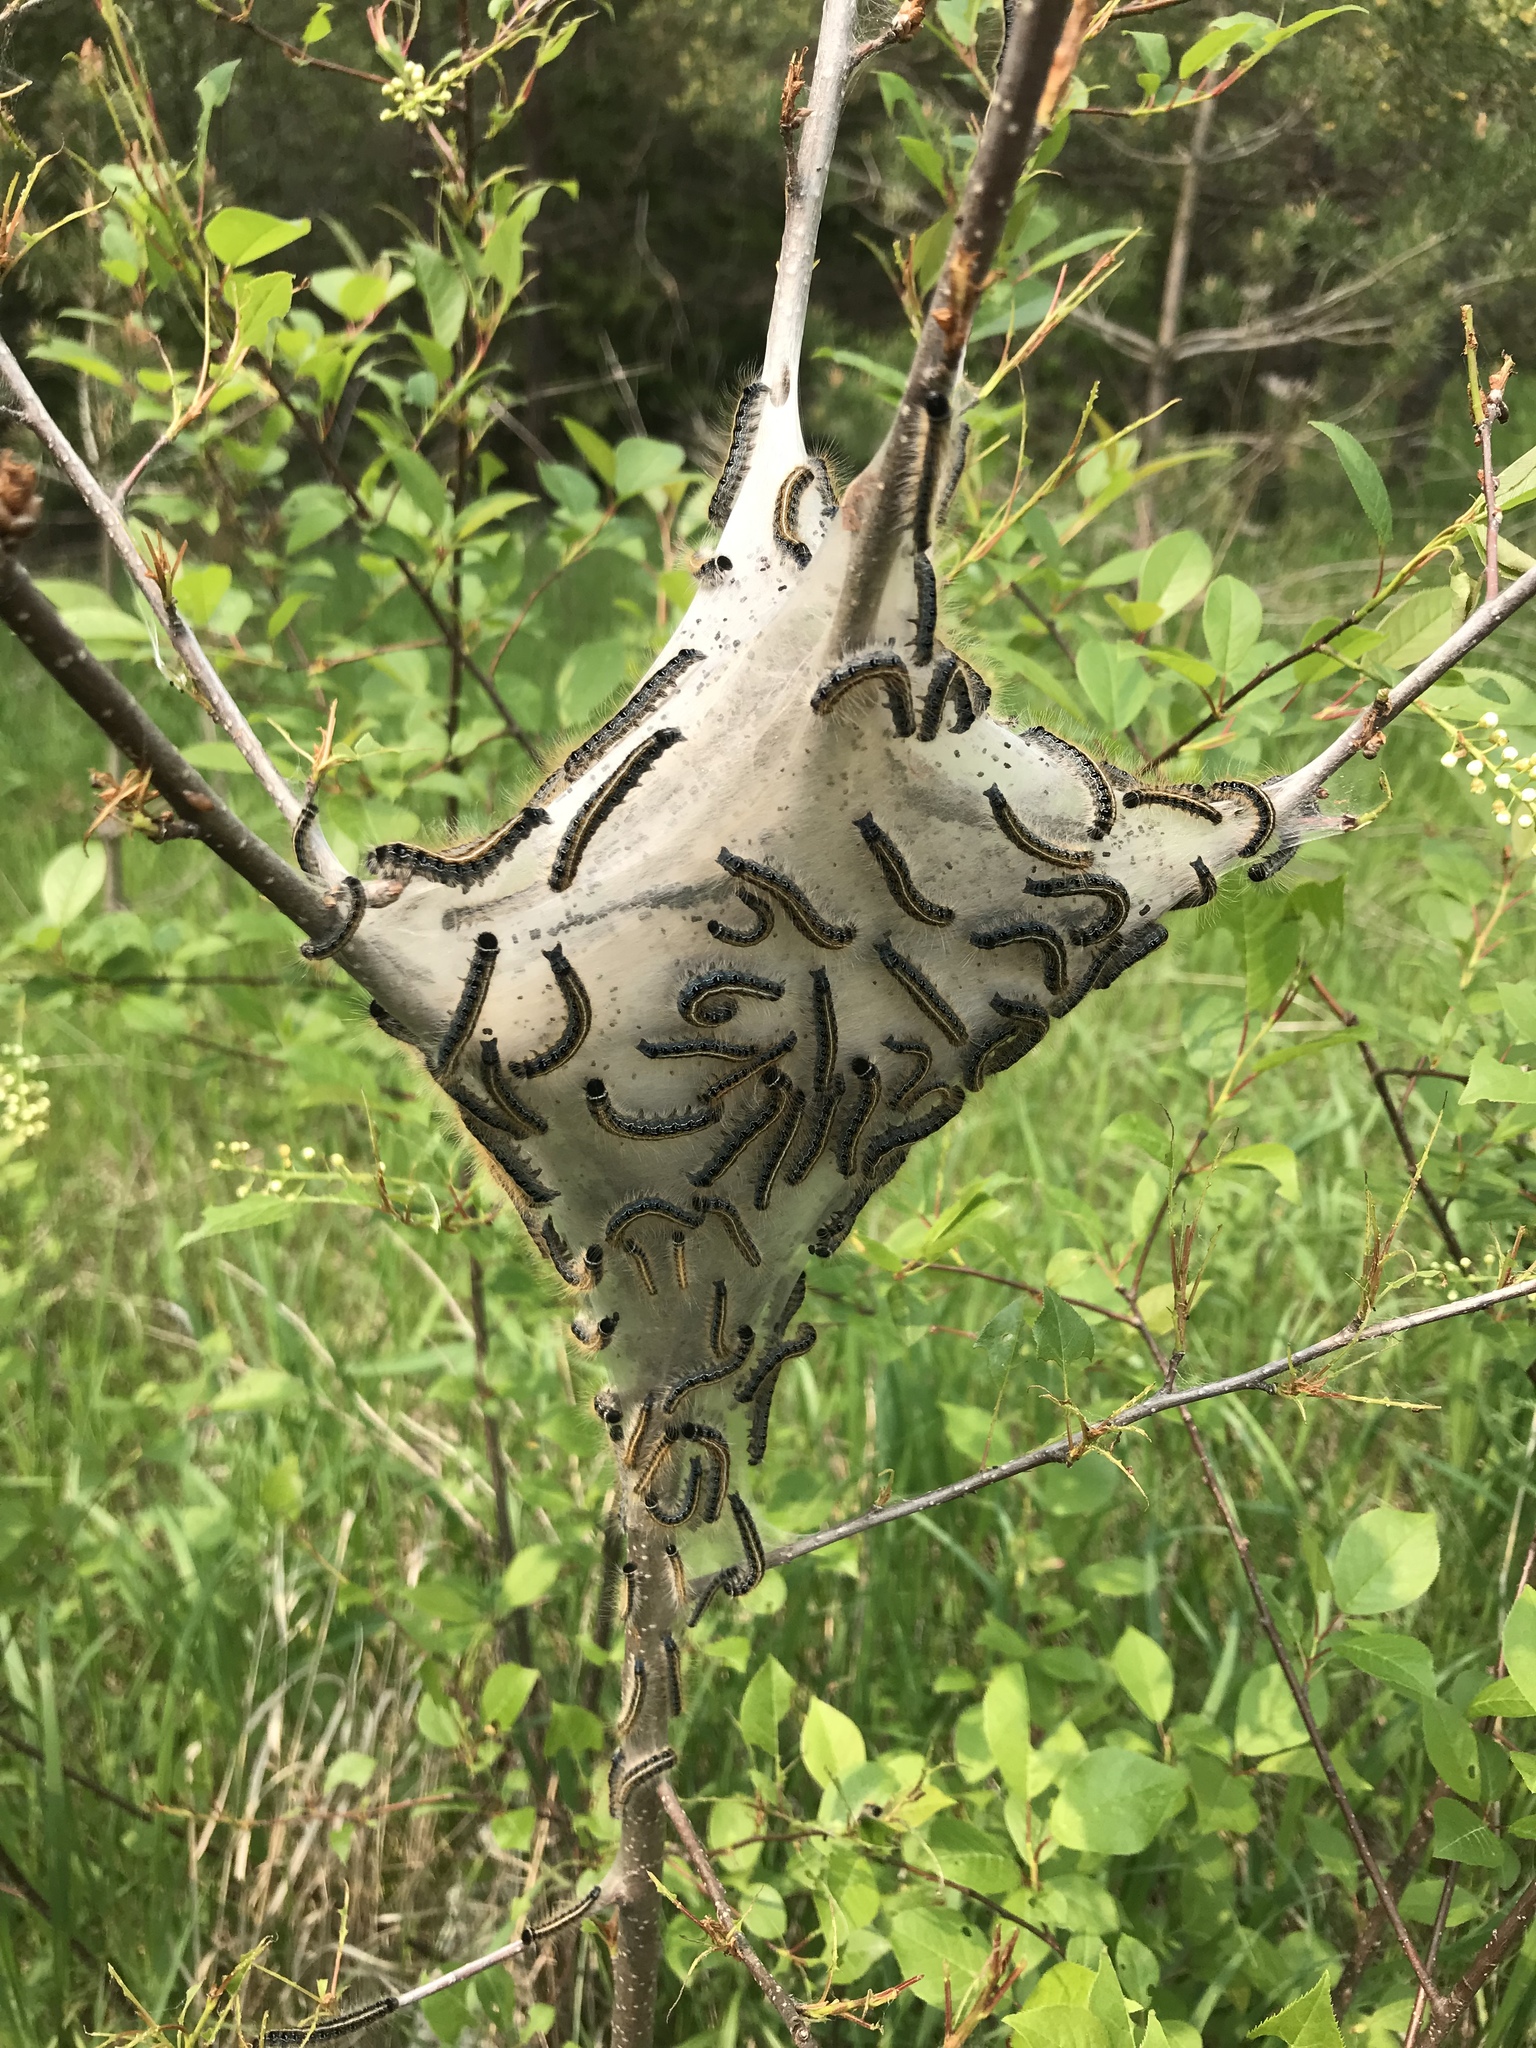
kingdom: Animalia
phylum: Arthropoda
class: Insecta
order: Lepidoptera
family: Lasiocampidae
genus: Malacosoma
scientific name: Malacosoma americana
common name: Eastern tent caterpillar moth
